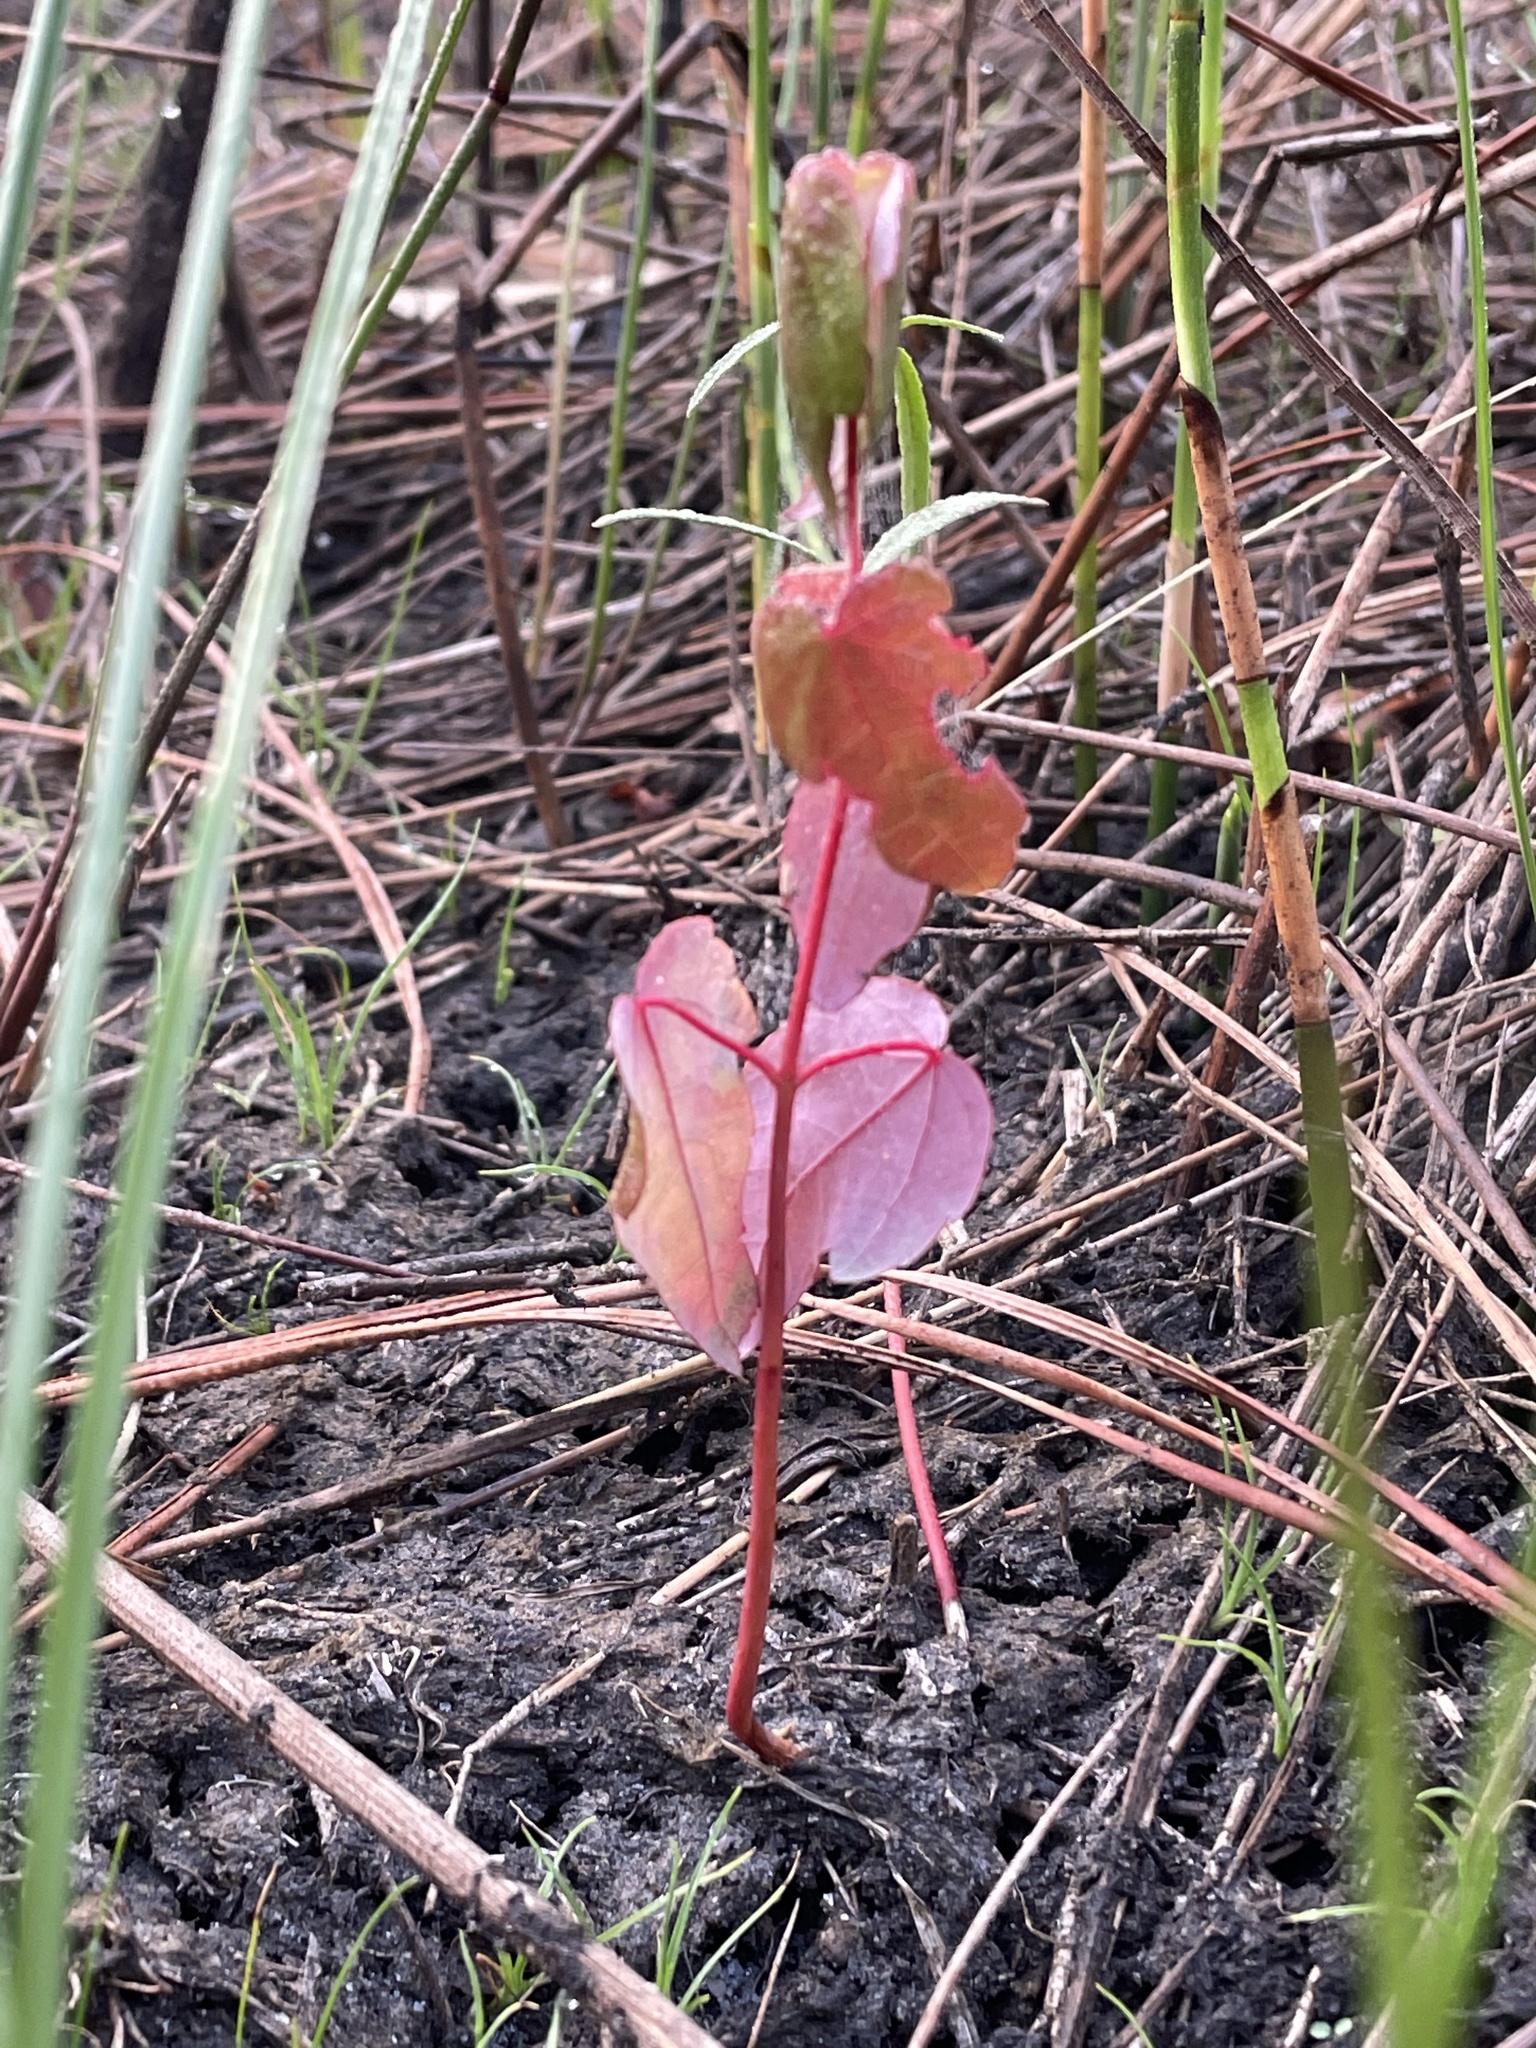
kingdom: Plantae
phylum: Tracheophyta
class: Magnoliopsida
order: Sapindales
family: Sapindaceae
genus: Acer
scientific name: Acer rubrum
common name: Red maple
